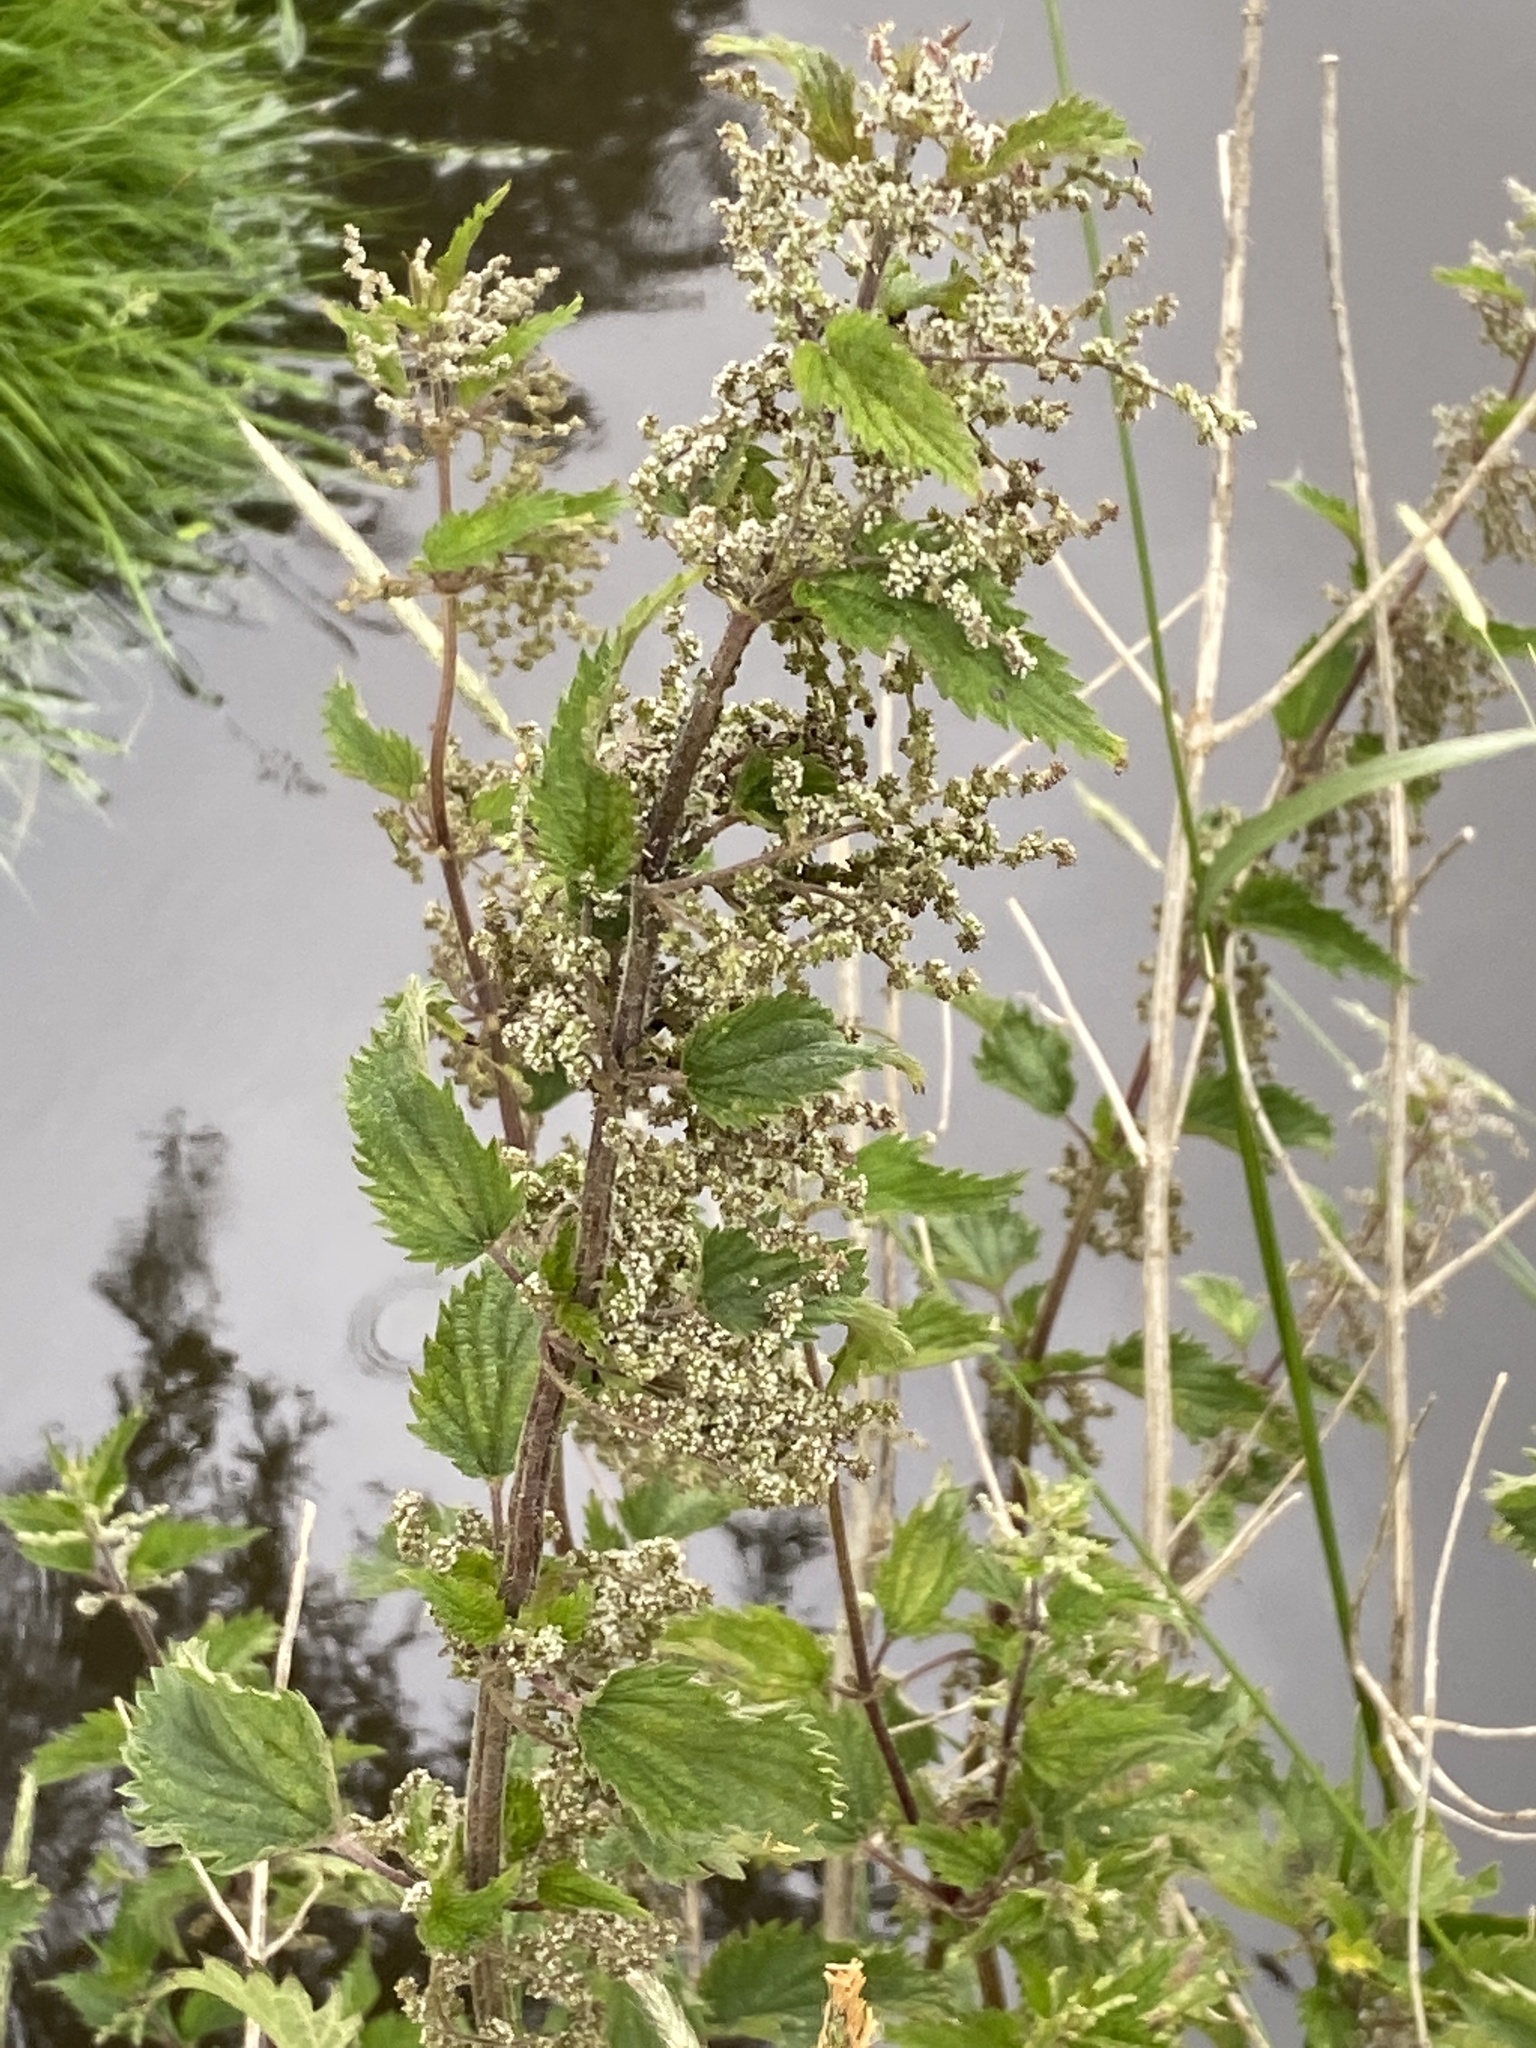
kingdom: Plantae
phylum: Tracheophyta
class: Magnoliopsida
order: Rosales
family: Urticaceae
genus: Urtica
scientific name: Urtica dioica
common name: Common nettle
